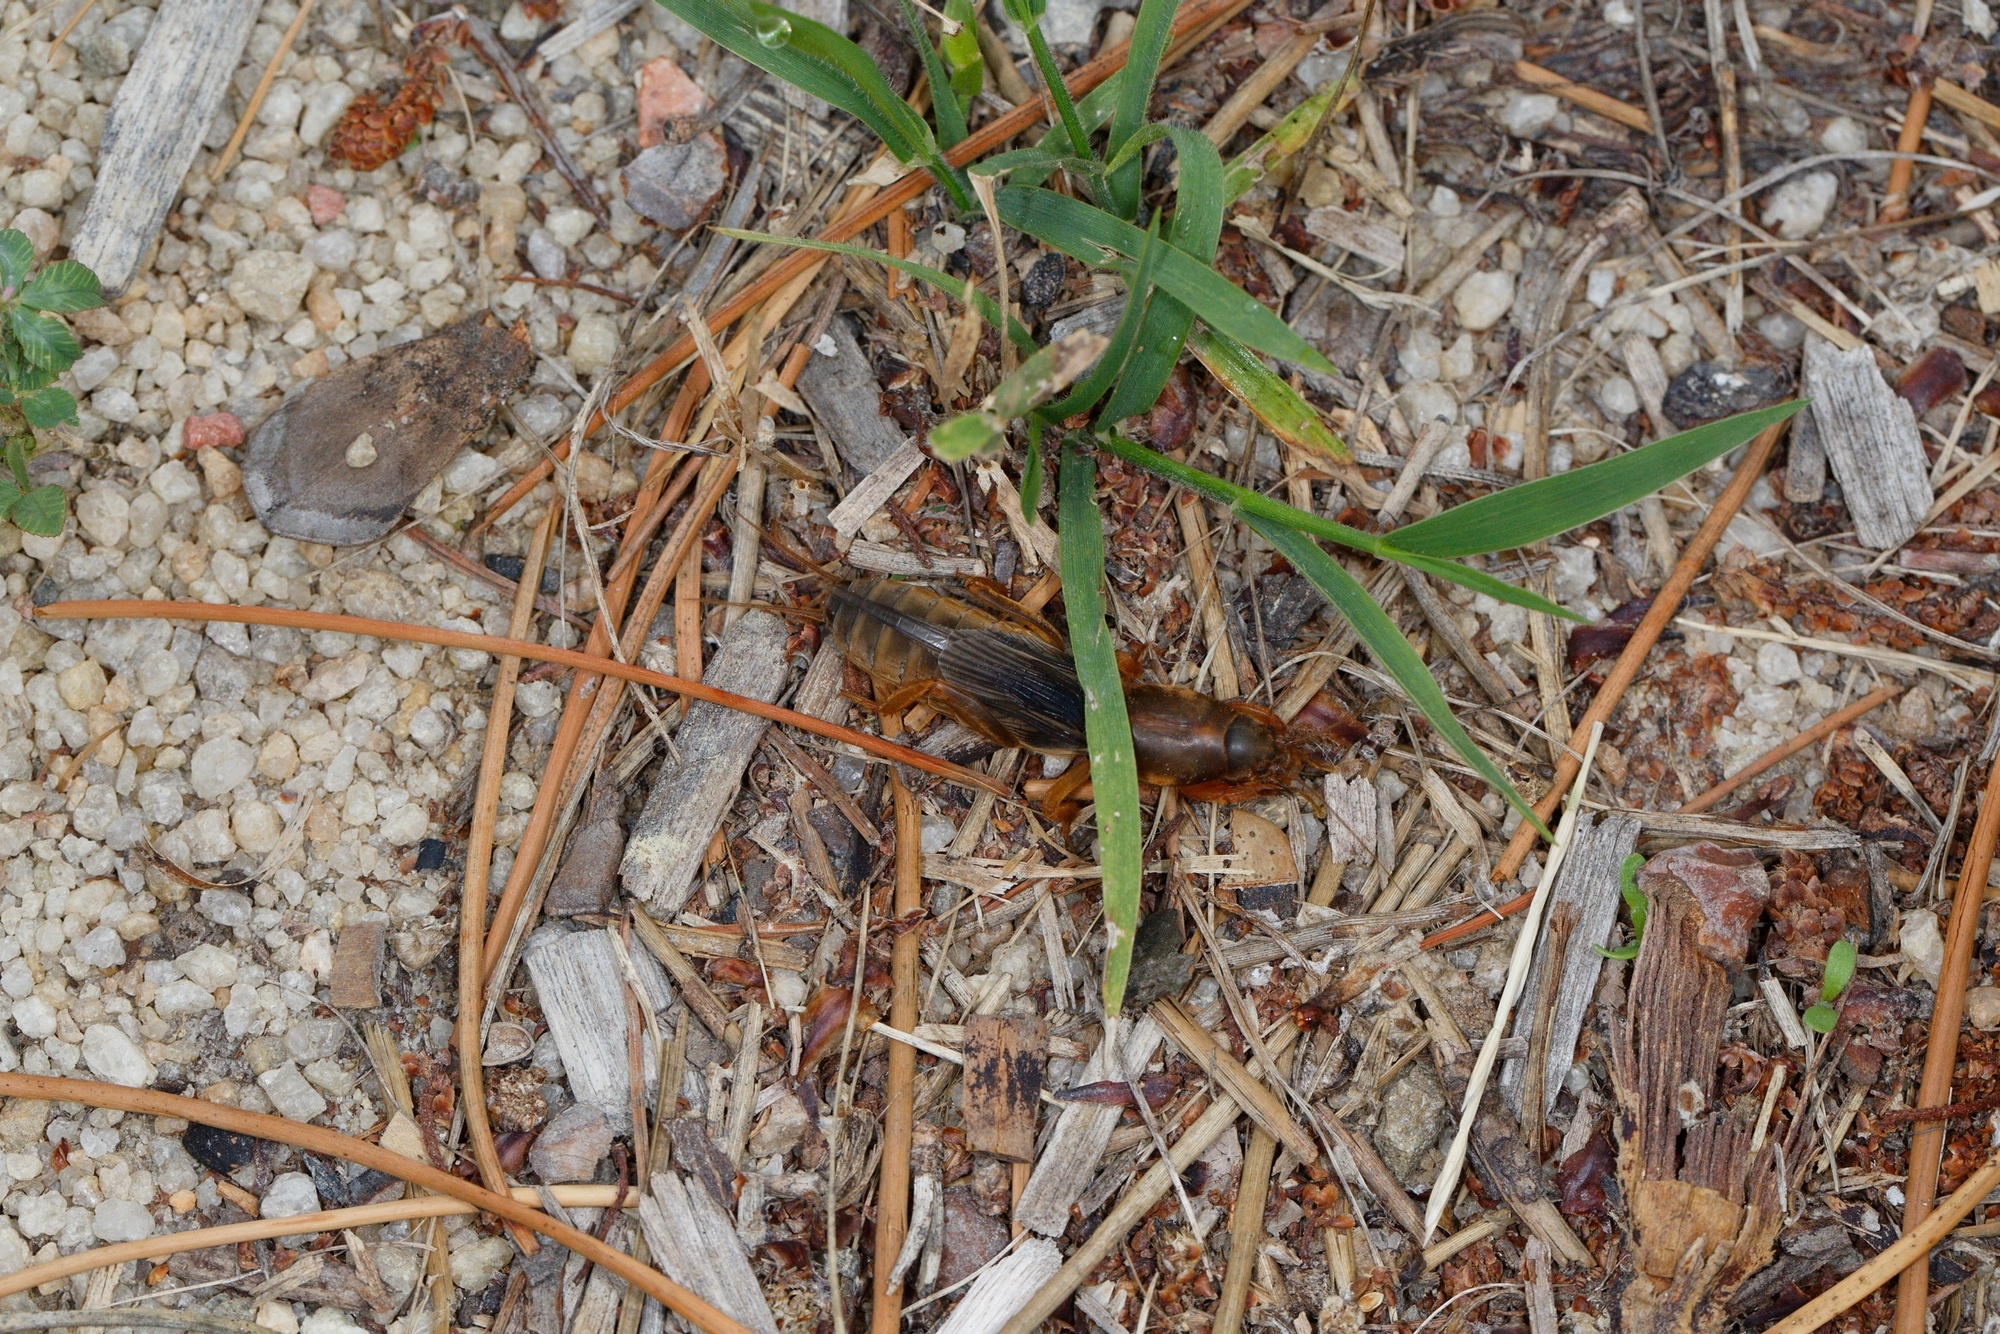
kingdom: Animalia
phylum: Arthropoda
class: Insecta
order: Orthoptera
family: Gryllotalpidae
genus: Gryllotalpa
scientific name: Gryllotalpa australis
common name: Southern mole cricket
